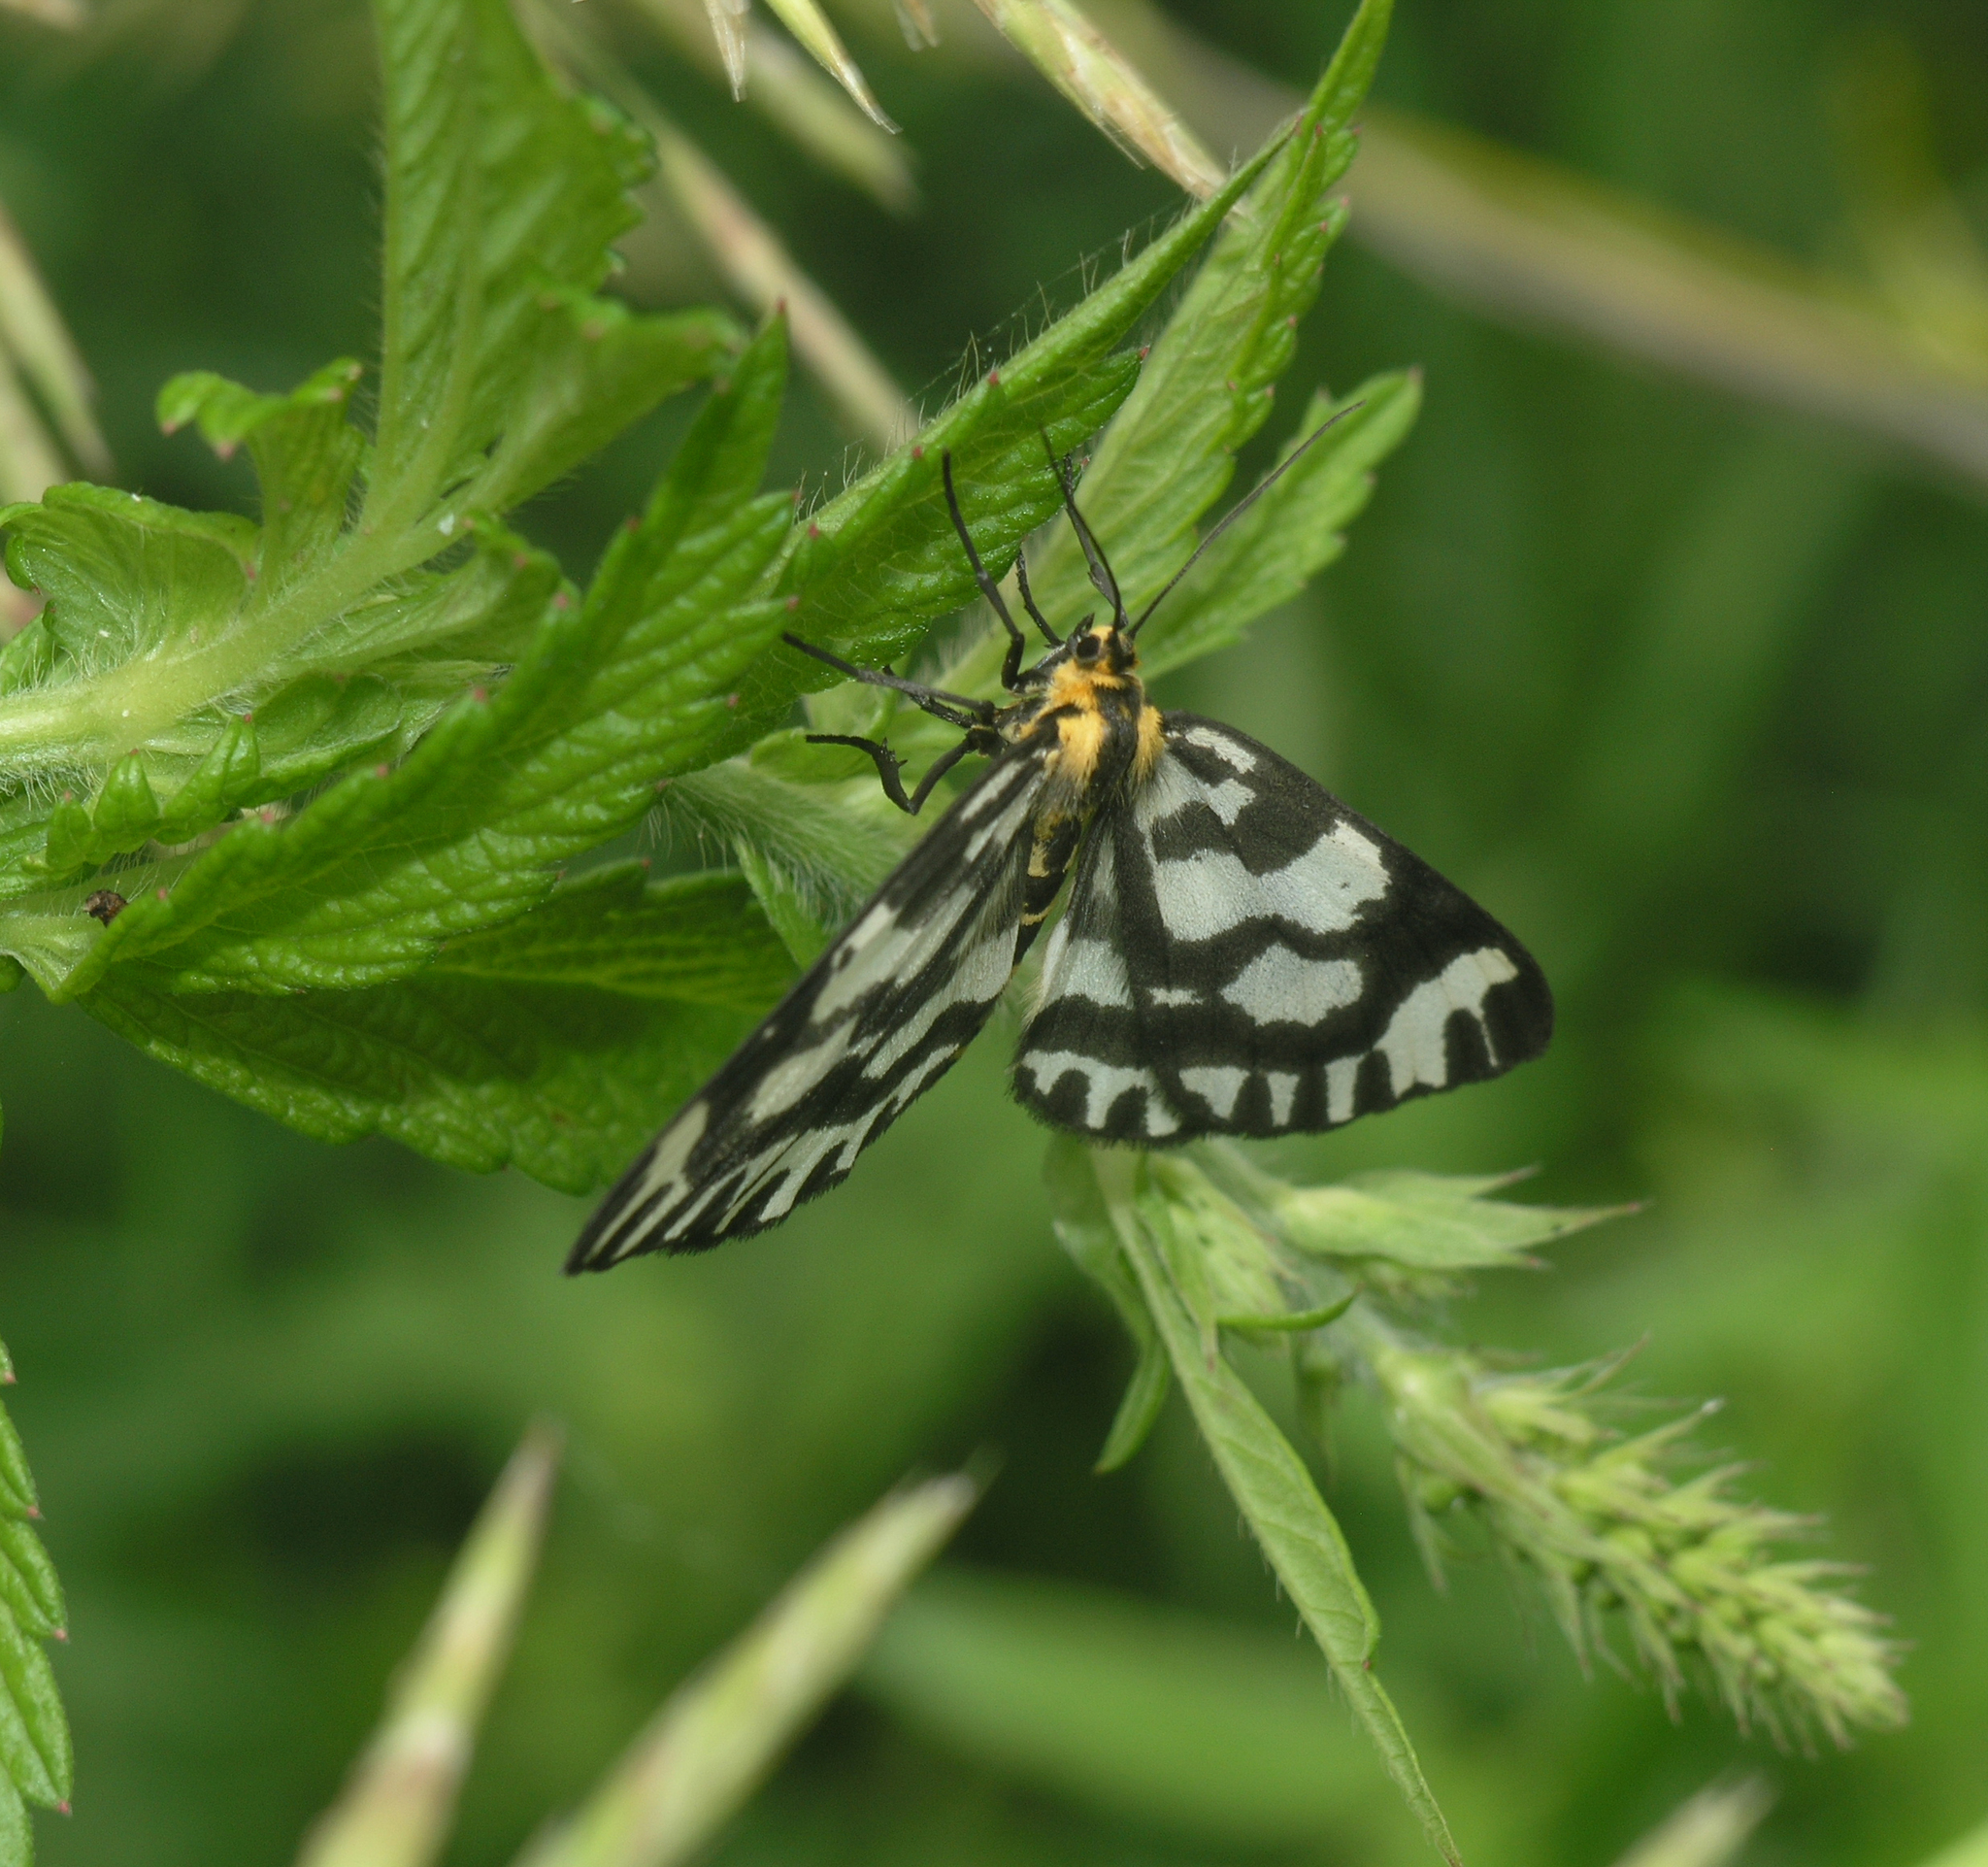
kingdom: Animalia
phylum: Arthropoda
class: Insecta
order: Lepidoptera
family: Geometridae
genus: Cystidia
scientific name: Cystidia couaggaria
